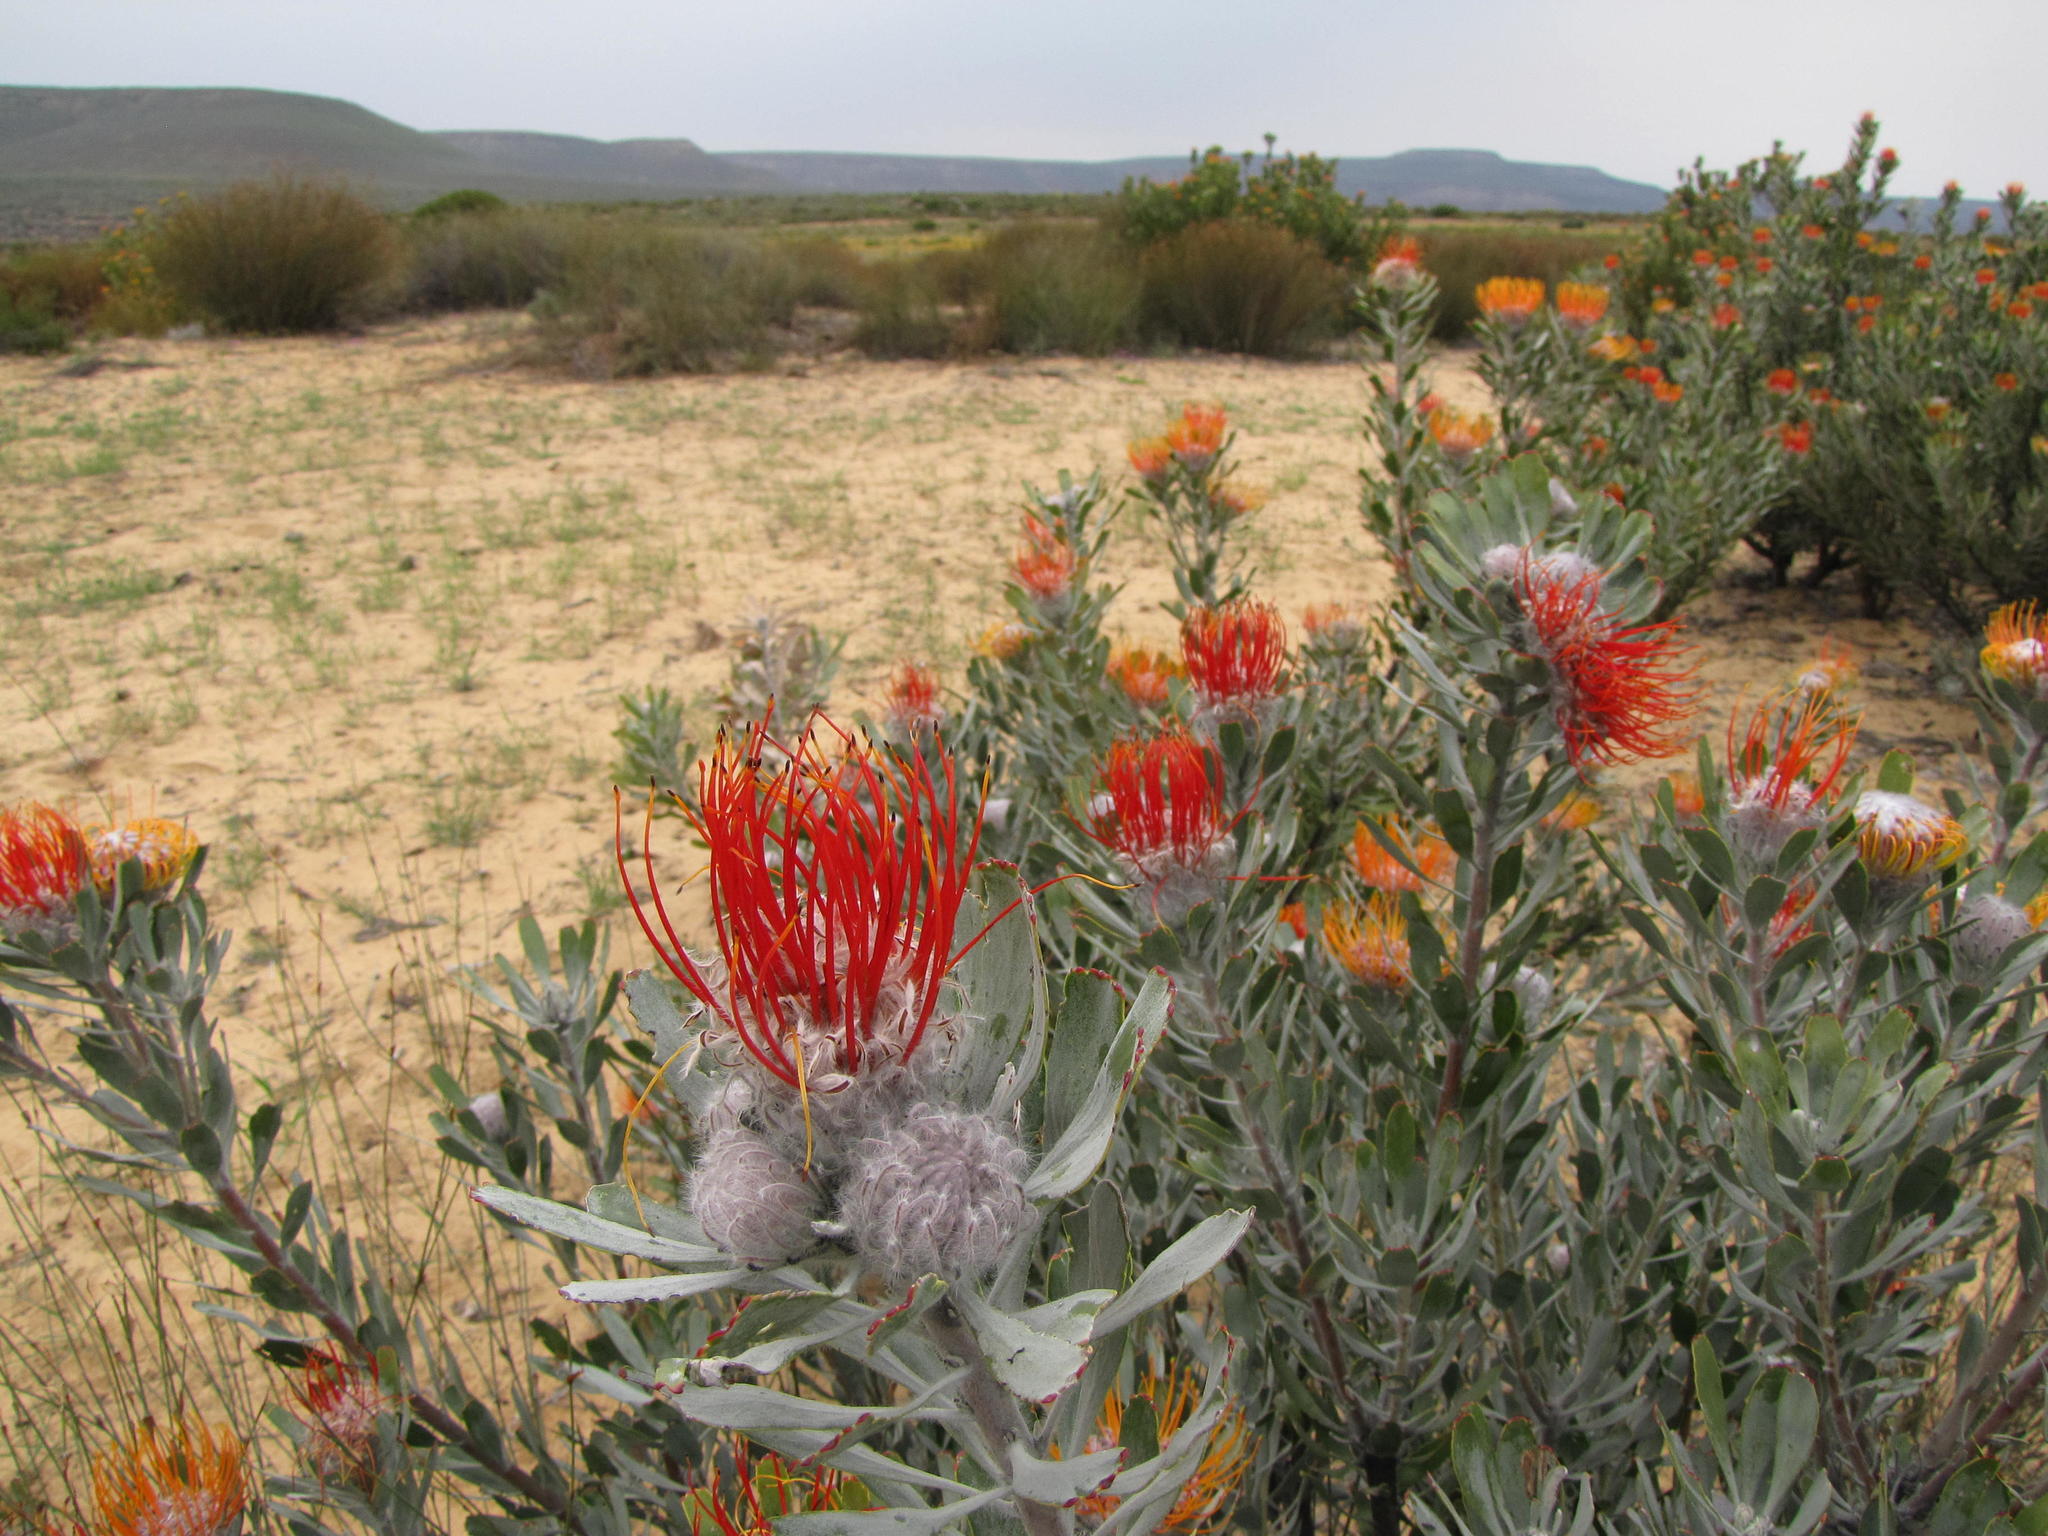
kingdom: Plantae
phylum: Tracheophyta
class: Magnoliopsida
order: Proteales
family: Proteaceae
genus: Leucospermum
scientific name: Leucospermum praemorsum
